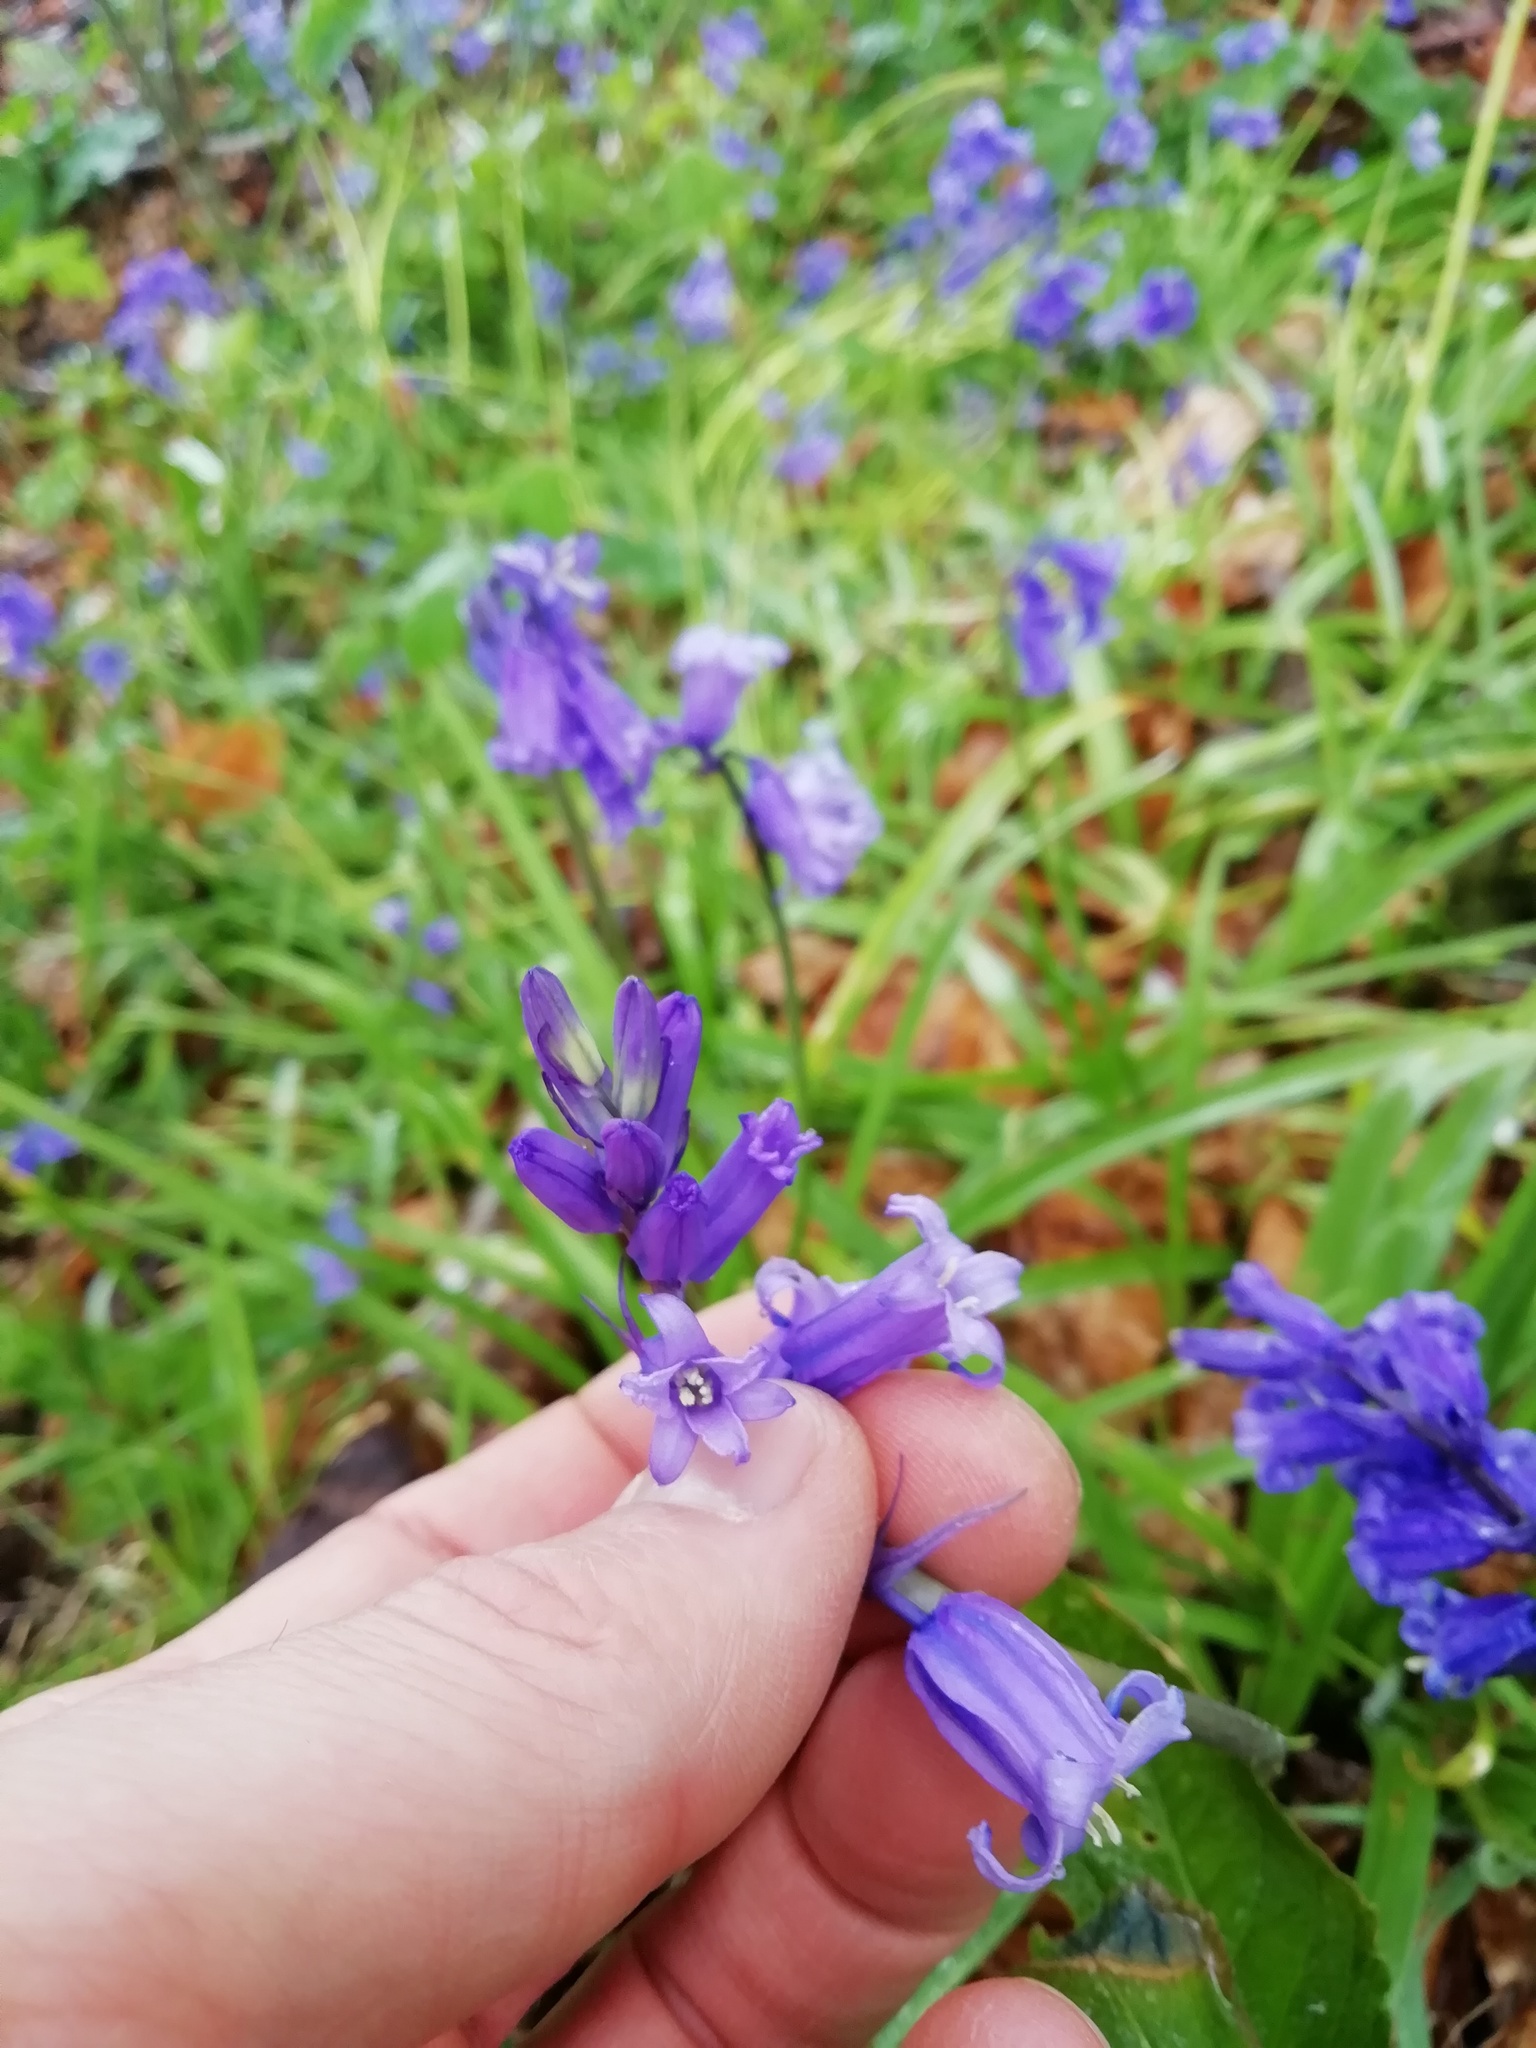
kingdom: Plantae
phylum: Tracheophyta
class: Liliopsida
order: Asparagales
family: Asparagaceae
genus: Hyacinthoides
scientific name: Hyacinthoides non-scripta
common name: Bluebell
